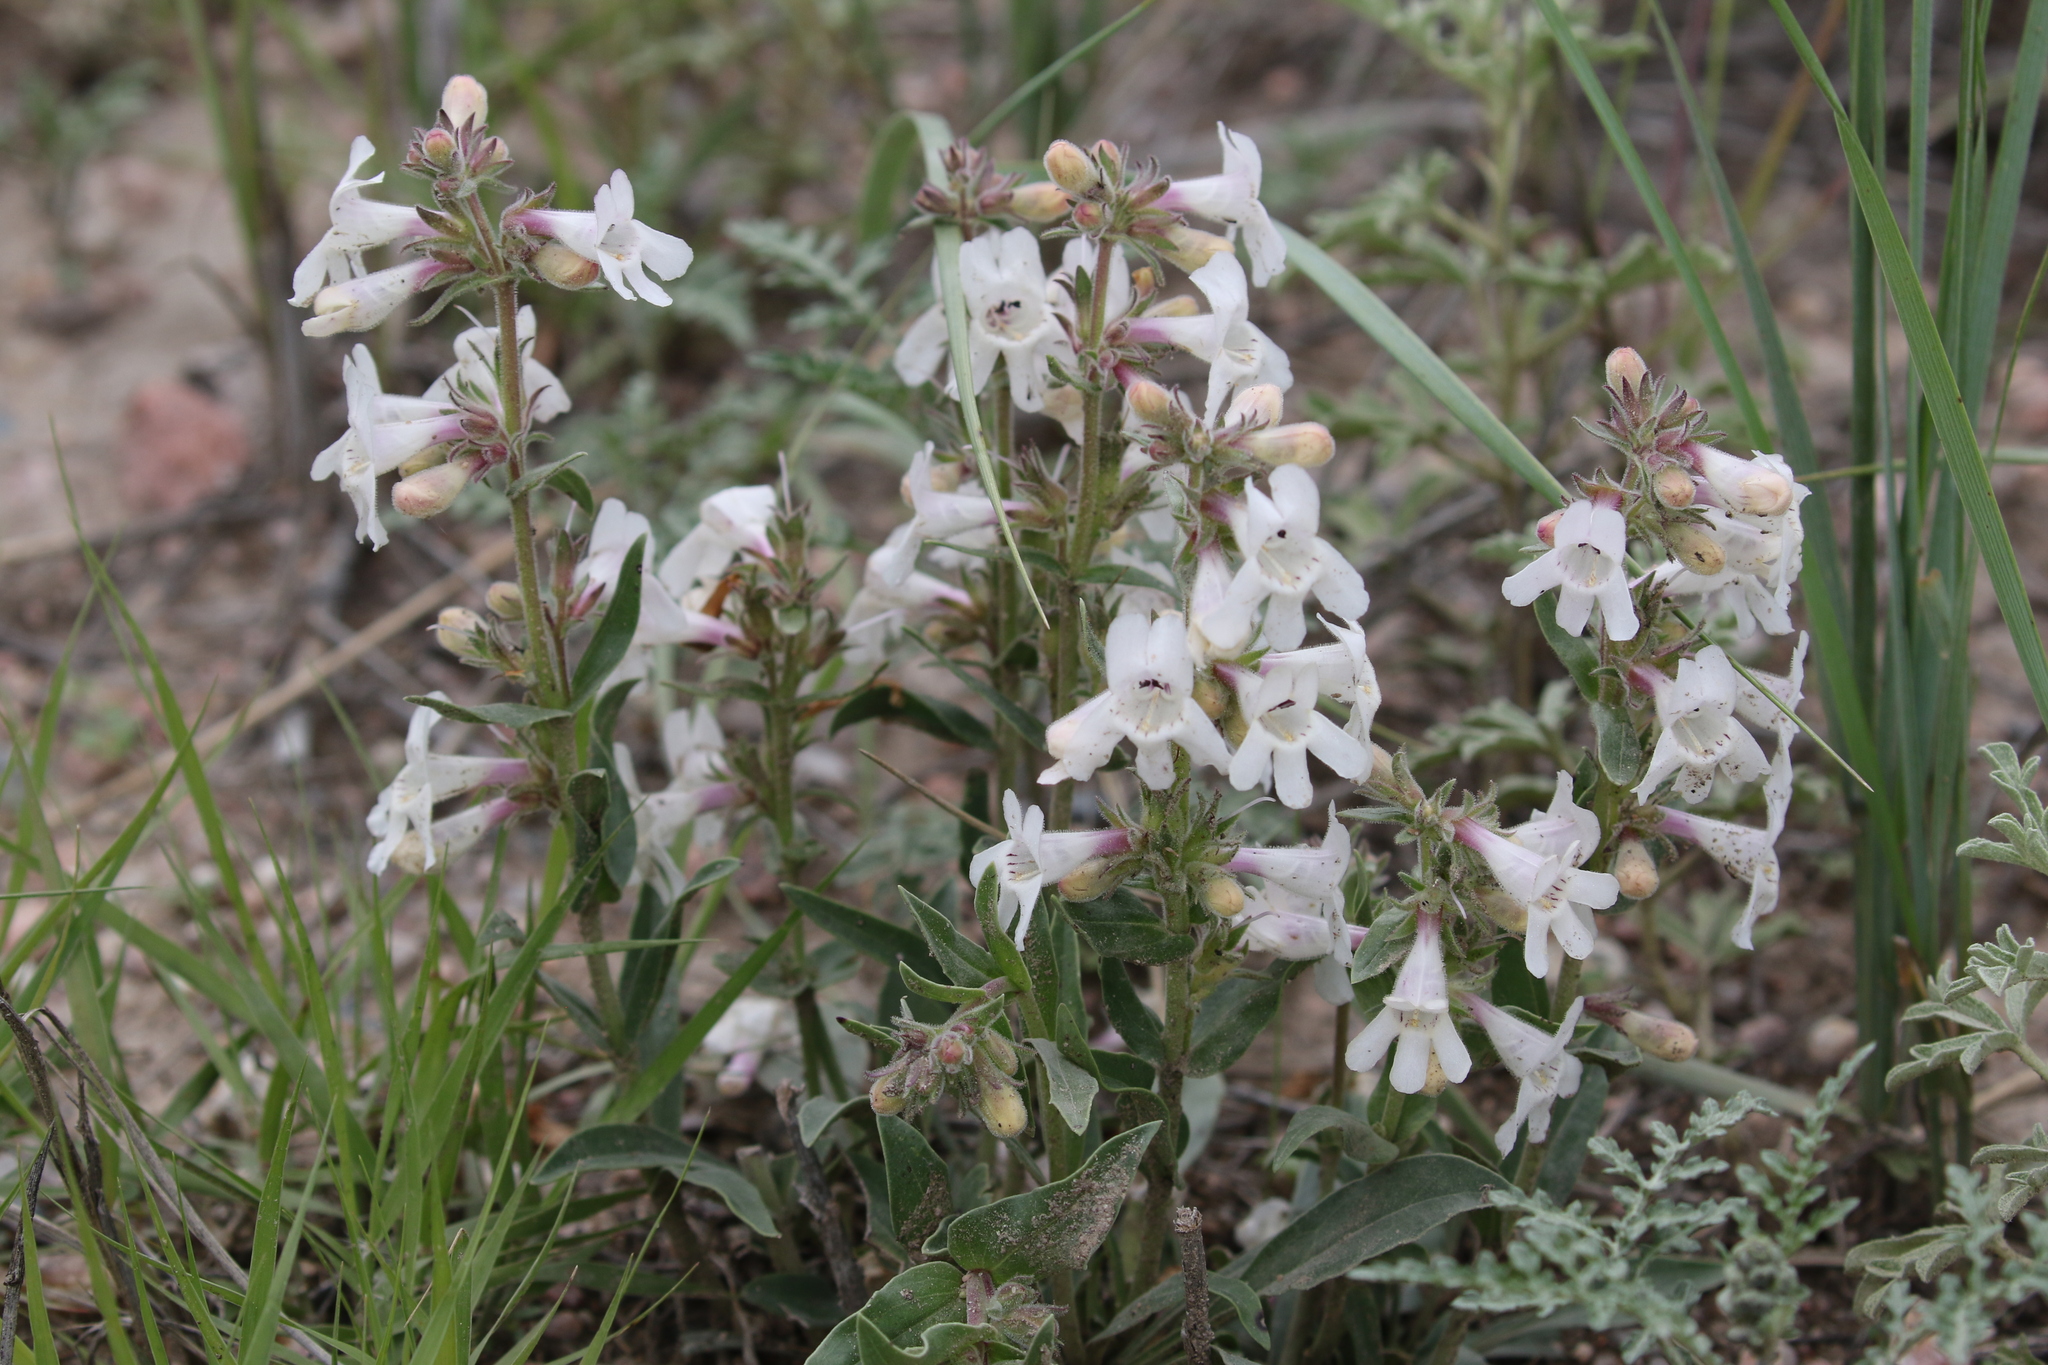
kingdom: Plantae
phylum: Tracheophyta
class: Magnoliopsida
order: Lamiales
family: Plantaginaceae
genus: Penstemon
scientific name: Penstemon albidus
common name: White beardtongue
